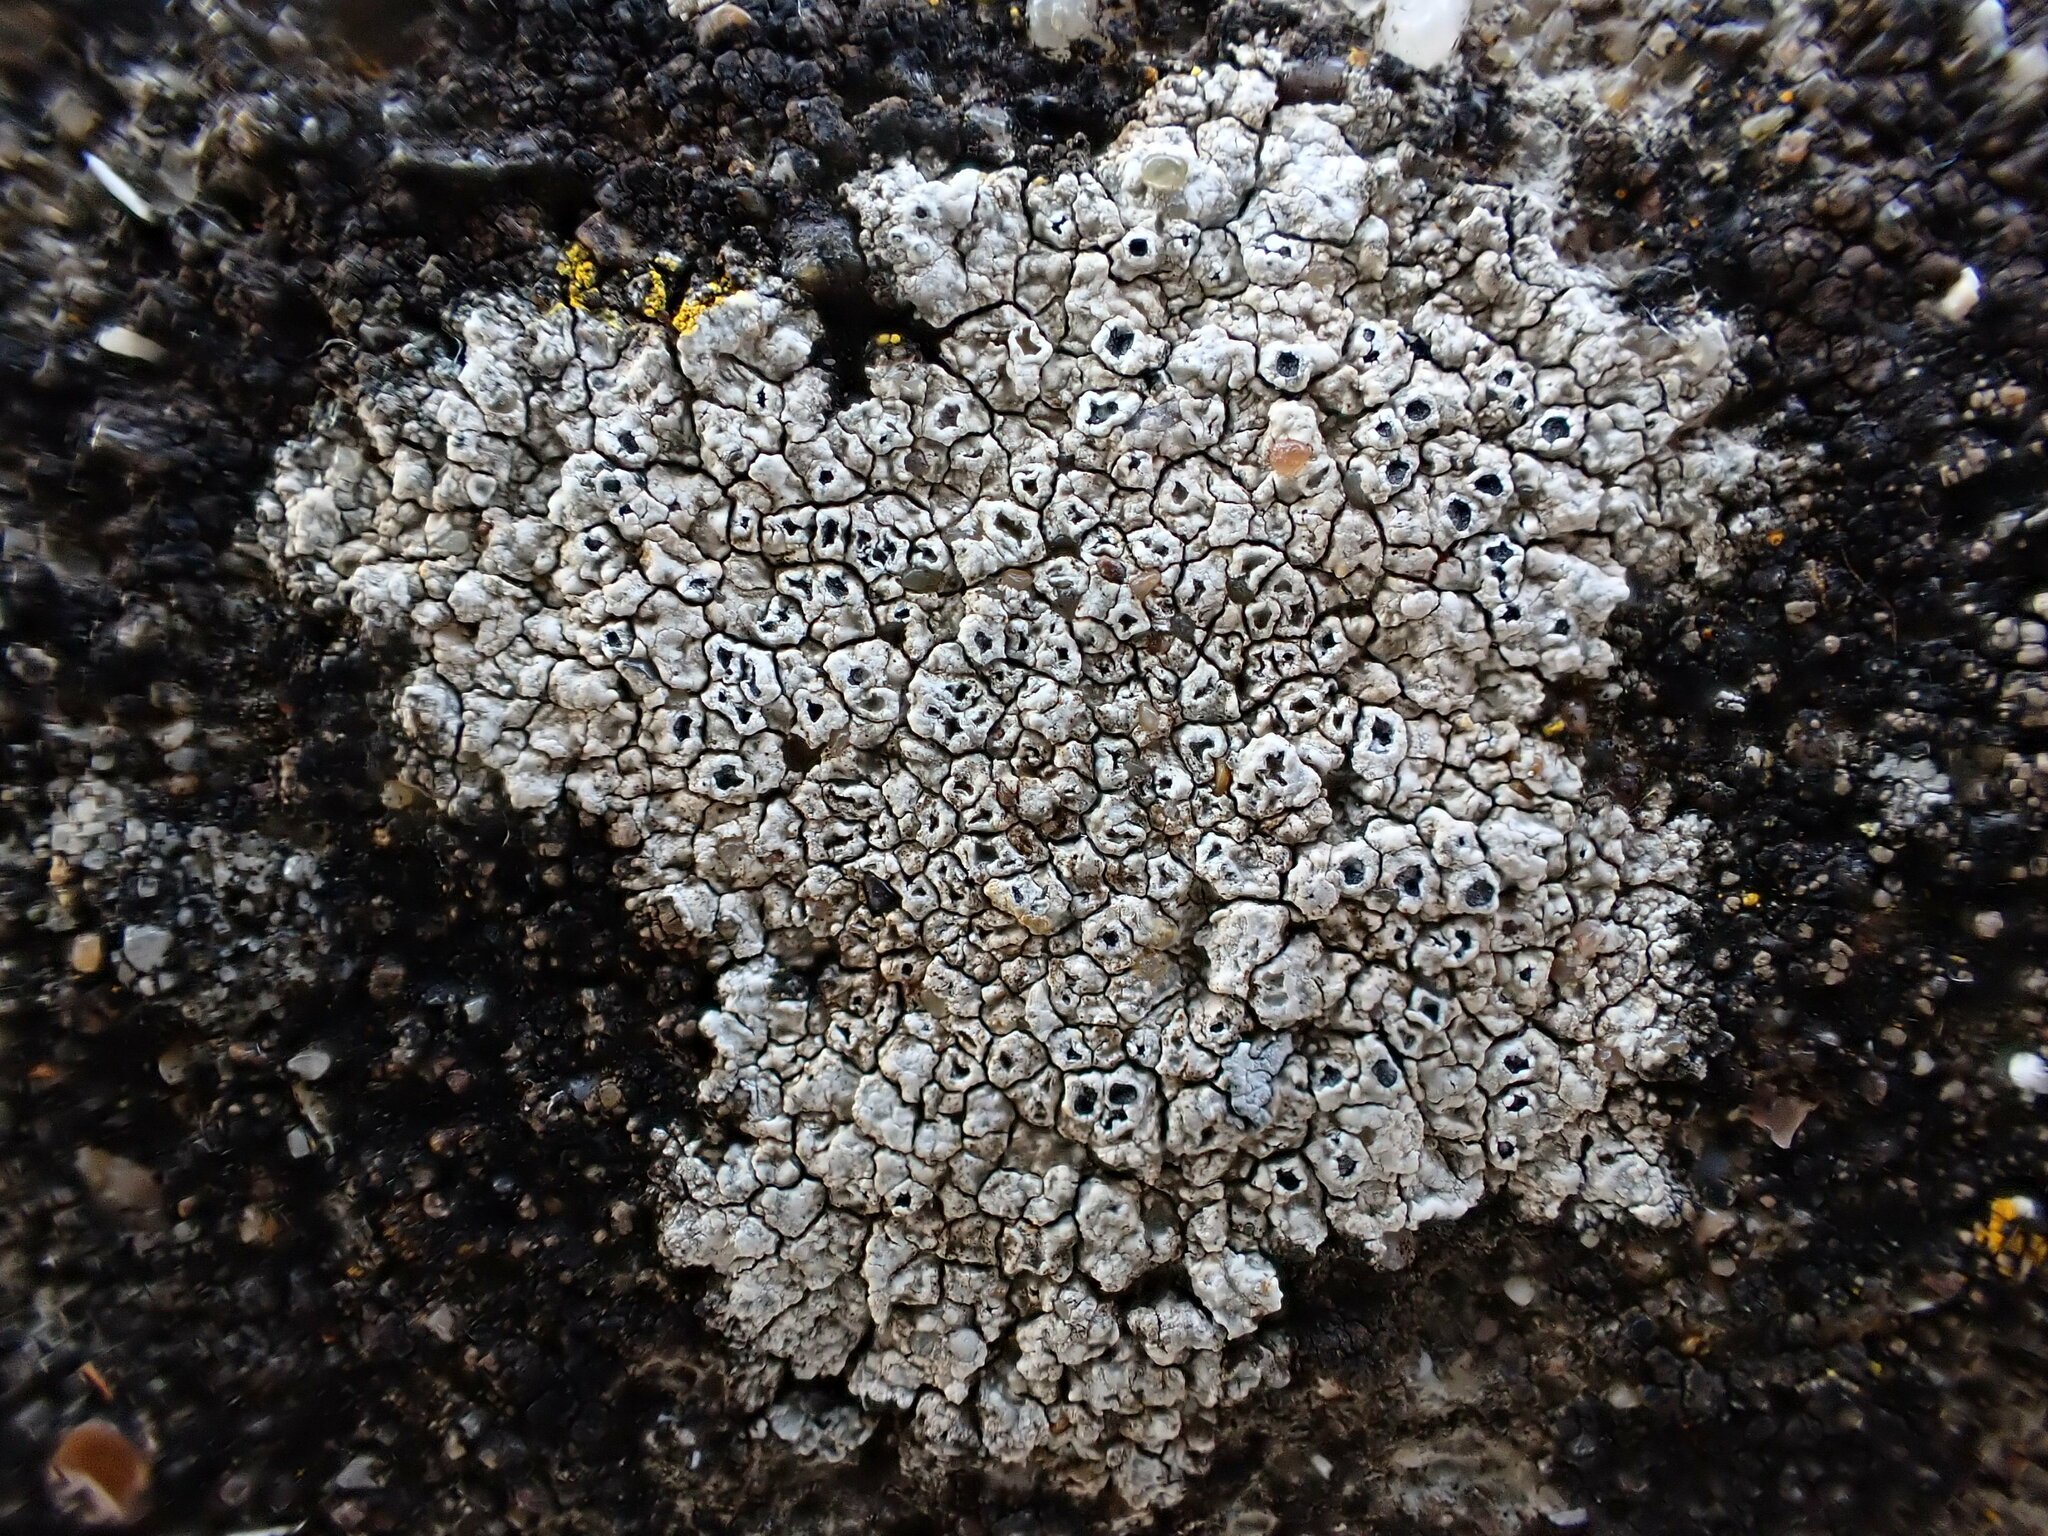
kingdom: Fungi
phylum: Ascomycota
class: Lecanoromycetes
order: Pertusariales
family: Megasporaceae
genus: Circinaria
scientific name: Circinaria hoffmanniana
